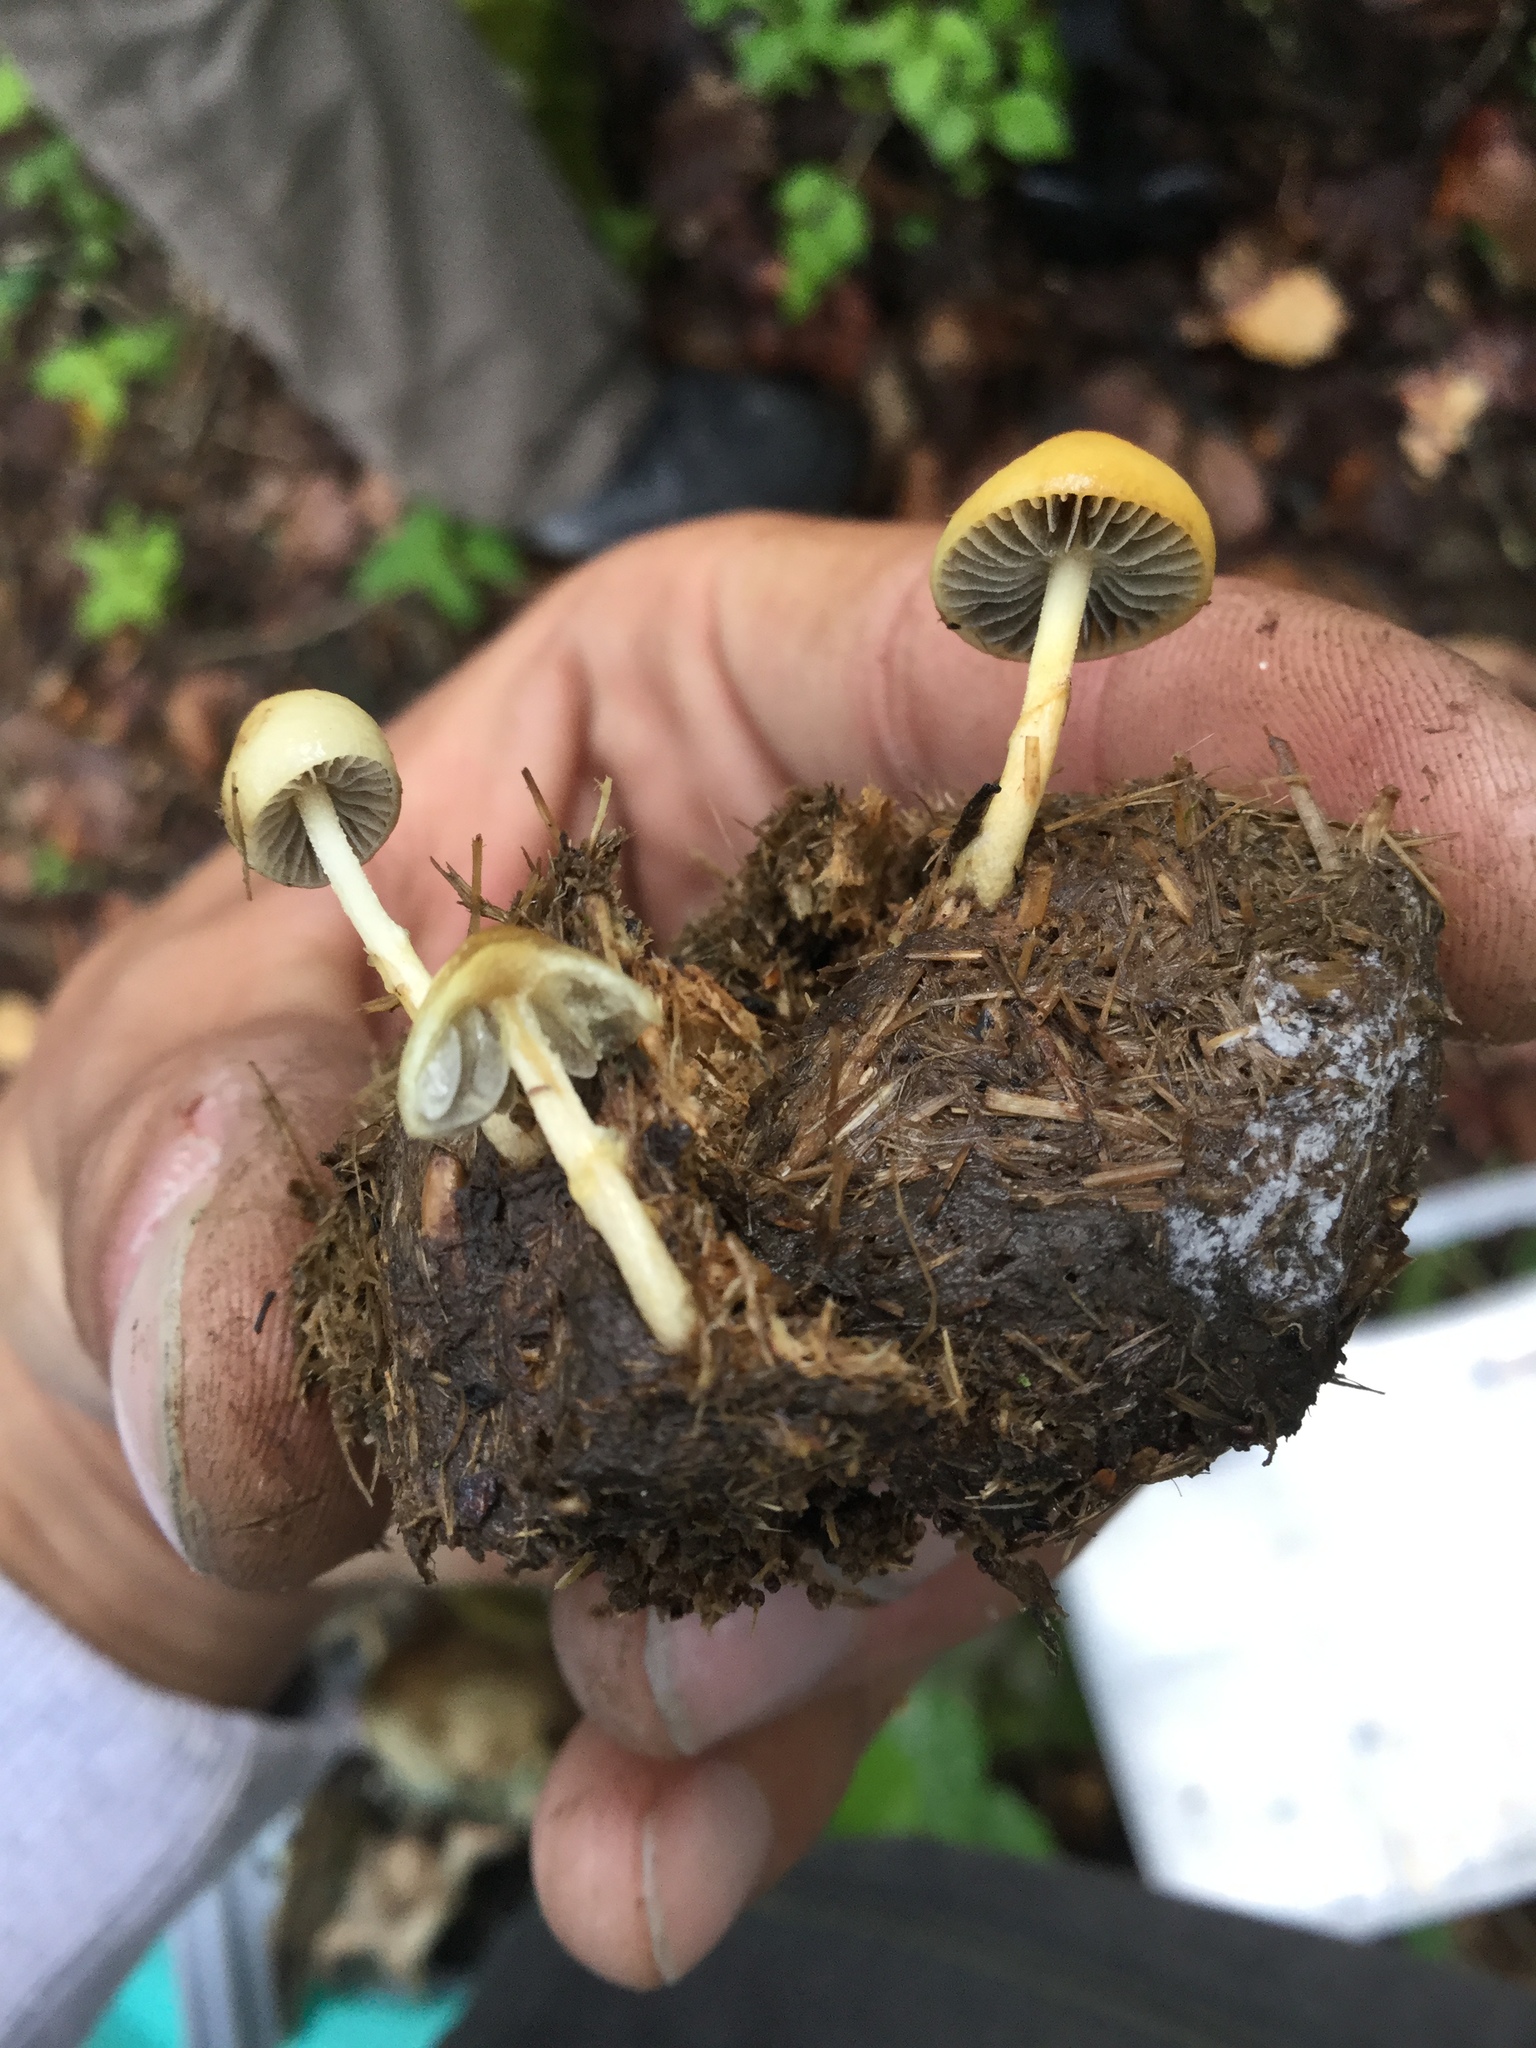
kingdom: Fungi
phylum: Basidiomycota
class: Agaricomycetes
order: Agaricales
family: Strophariaceae
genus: Protostropharia
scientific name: Protostropharia semiglobata
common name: Dung roundhead
